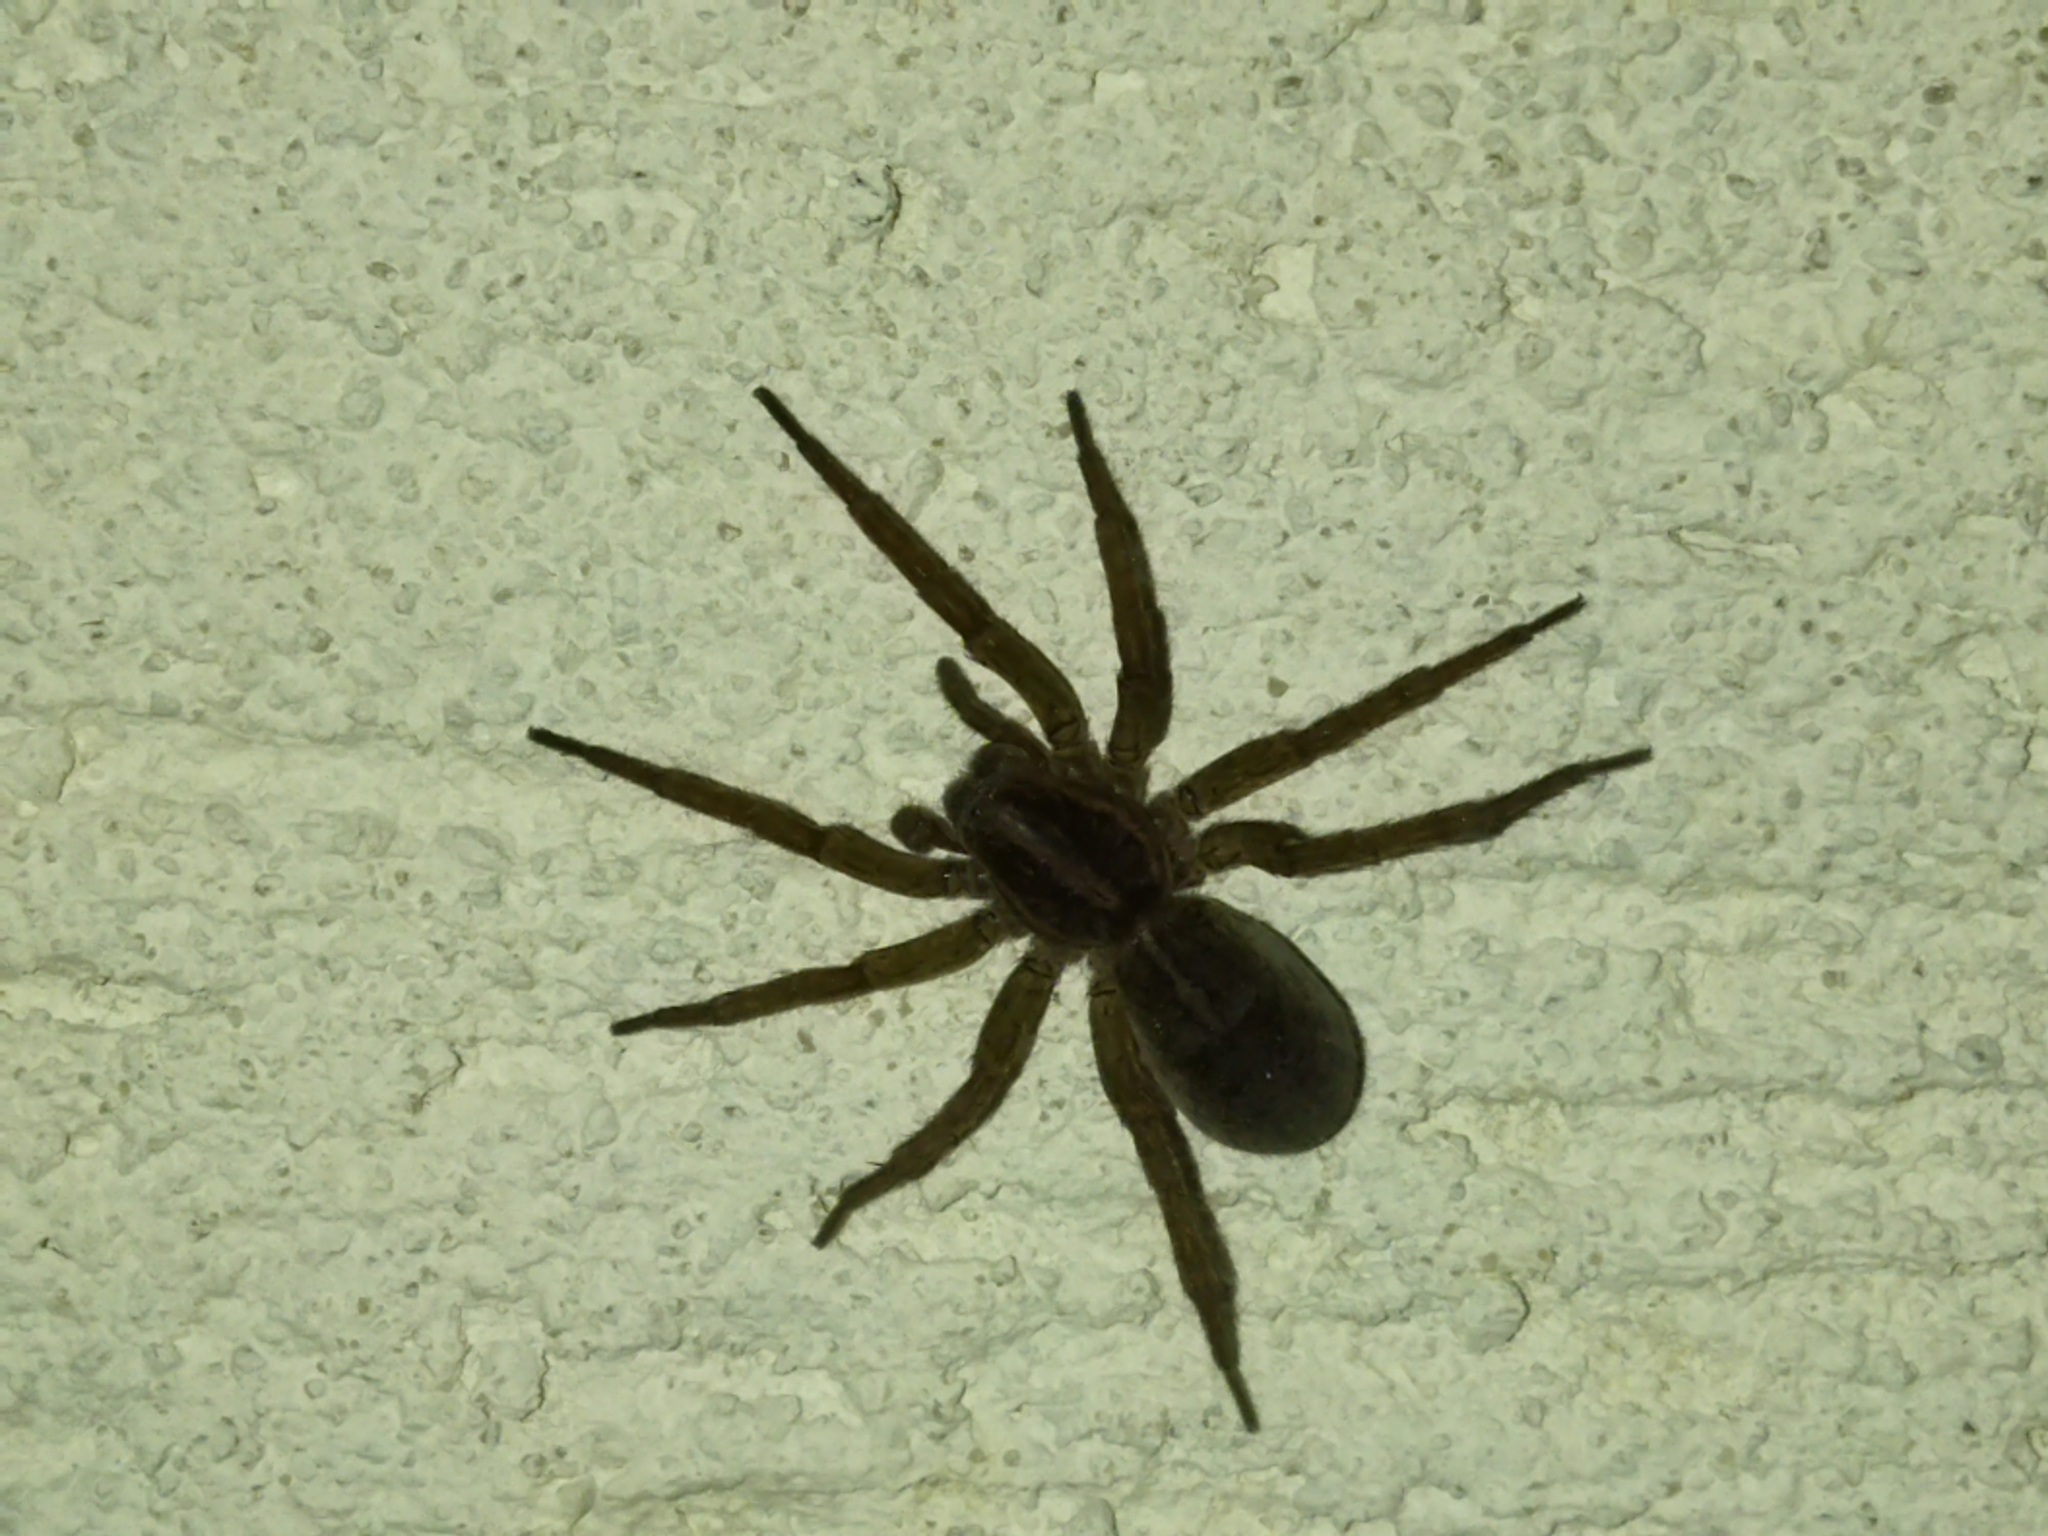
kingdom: Animalia
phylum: Arthropoda
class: Arachnida
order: Araneae
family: Lycosidae
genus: Trochosa
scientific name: Trochosa ruricola
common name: Spider
